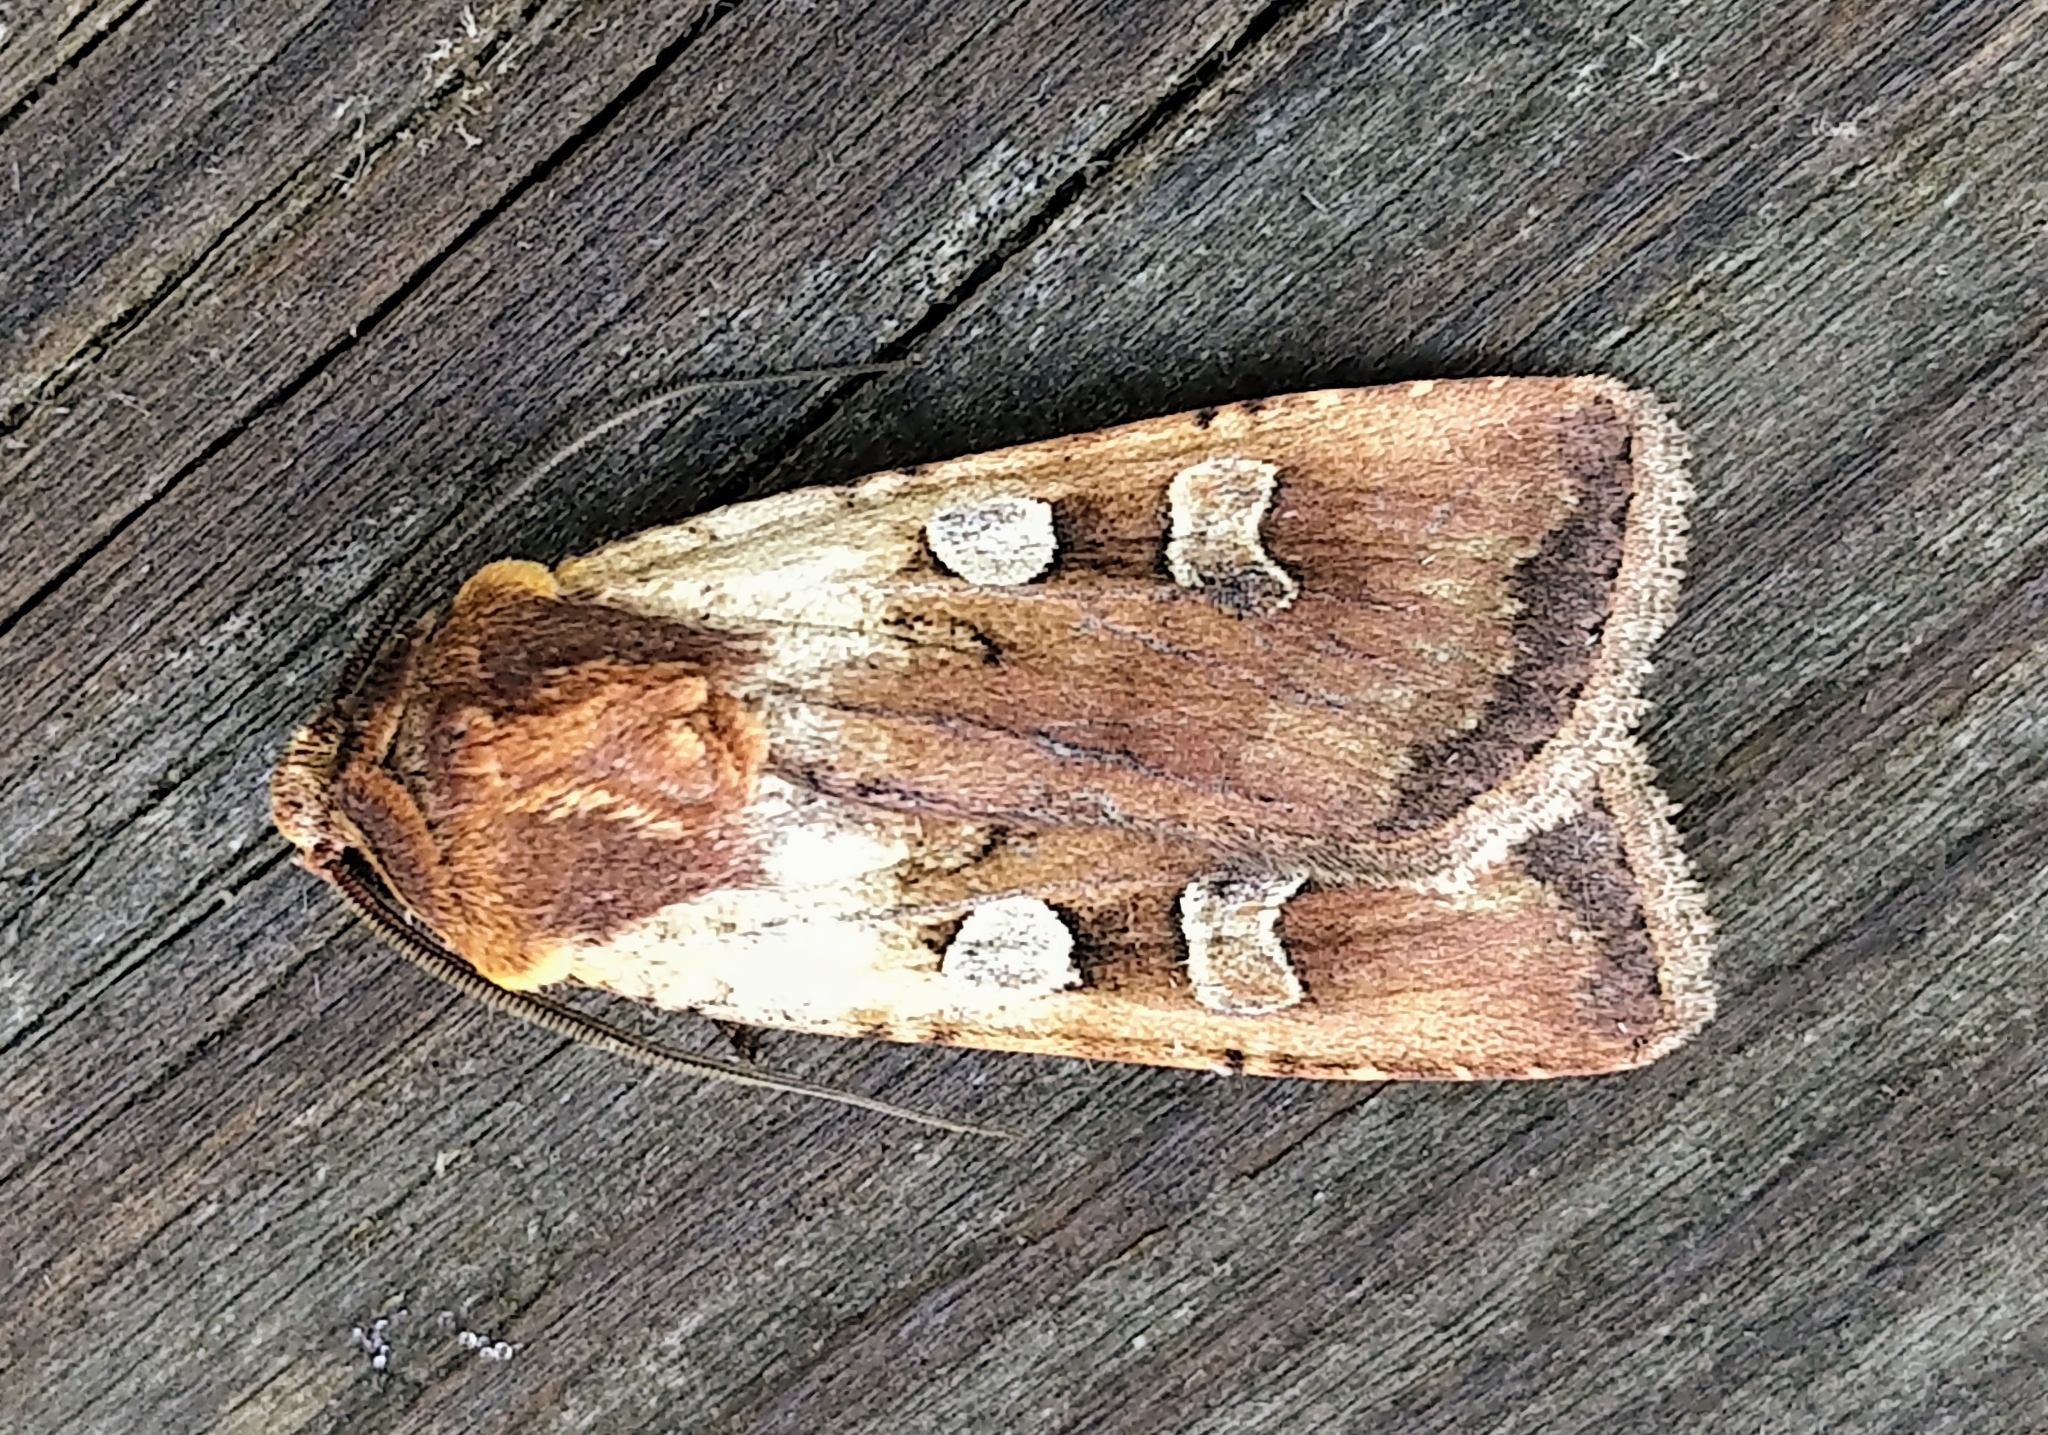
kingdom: Animalia
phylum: Arthropoda
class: Insecta
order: Lepidoptera
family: Noctuidae
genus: Euxoa
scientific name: Euxoa basalis
